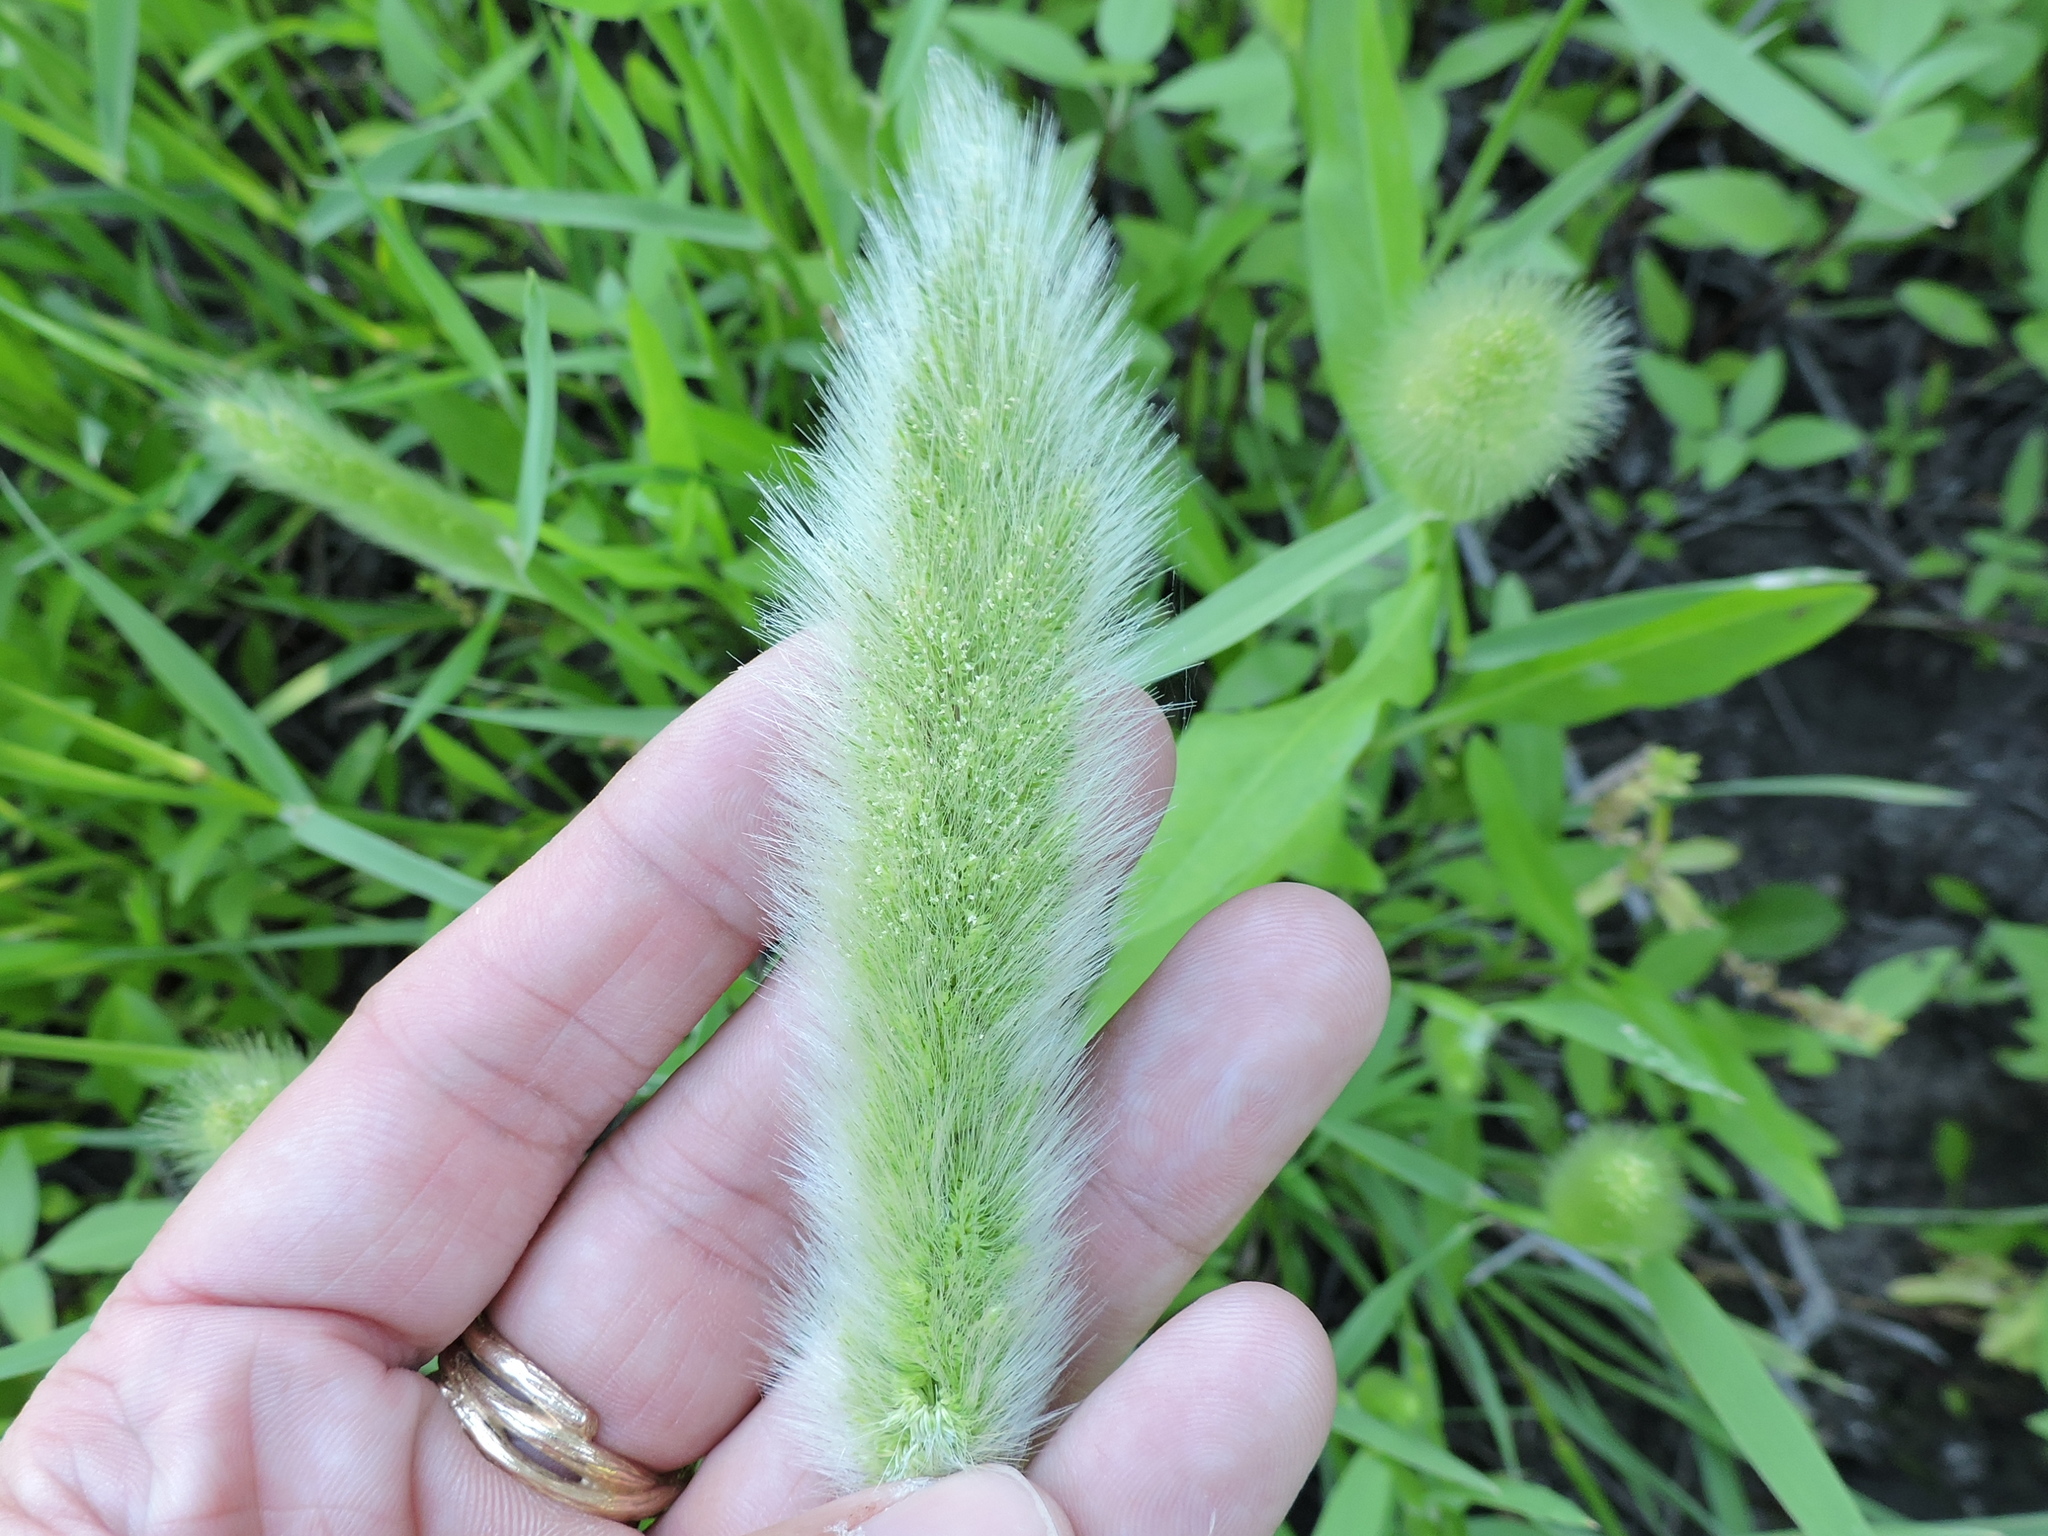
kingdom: Plantae
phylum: Tracheophyta
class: Liliopsida
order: Poales
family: Poaceae
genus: Polypogon
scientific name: Polypogon monspeliensis
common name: Annual rabbitsfoot grass
